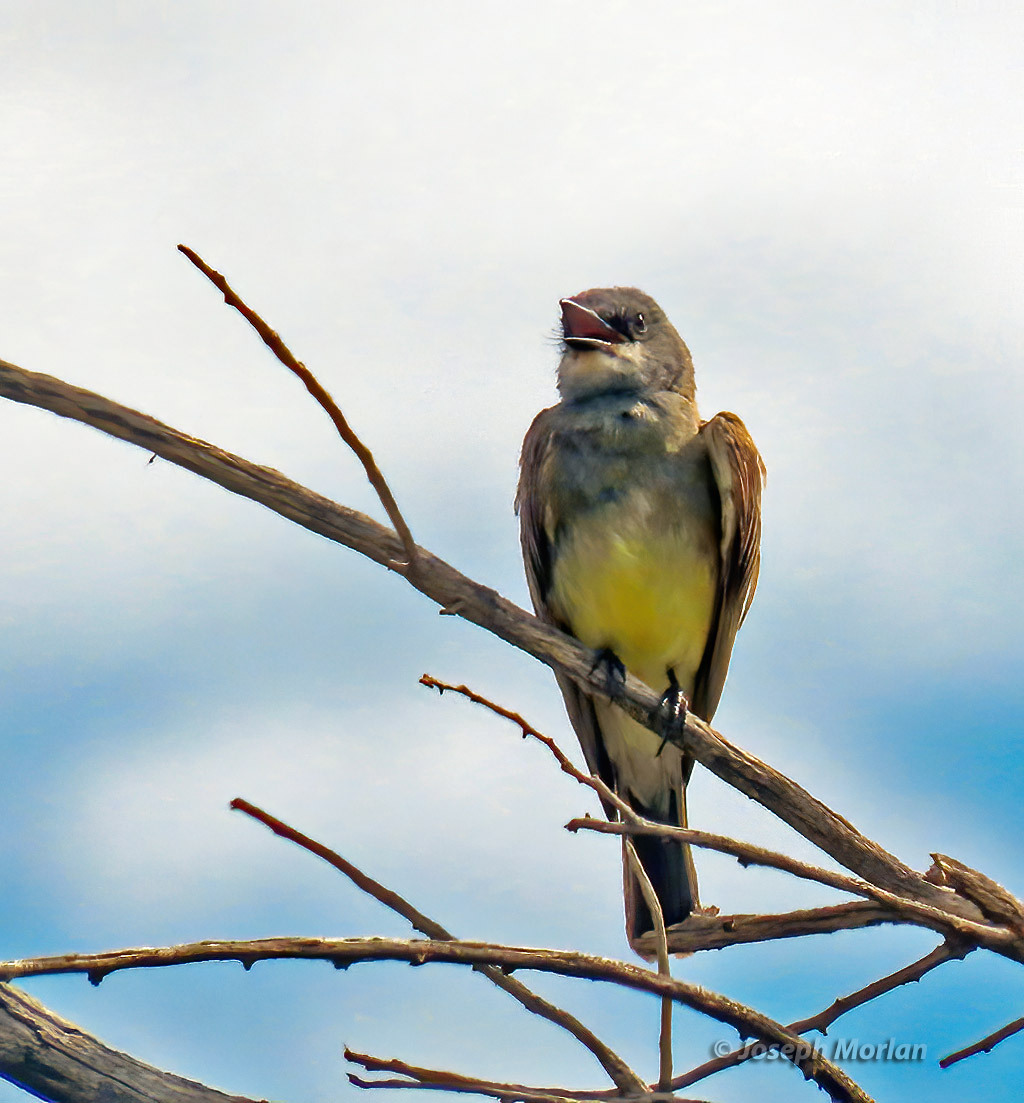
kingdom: Animalia
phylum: Chordata
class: Aves
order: Passeriformes
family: Tyrannidae
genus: Tyrannus
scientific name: Tyrannus vociferans
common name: Cassin's kingbird
